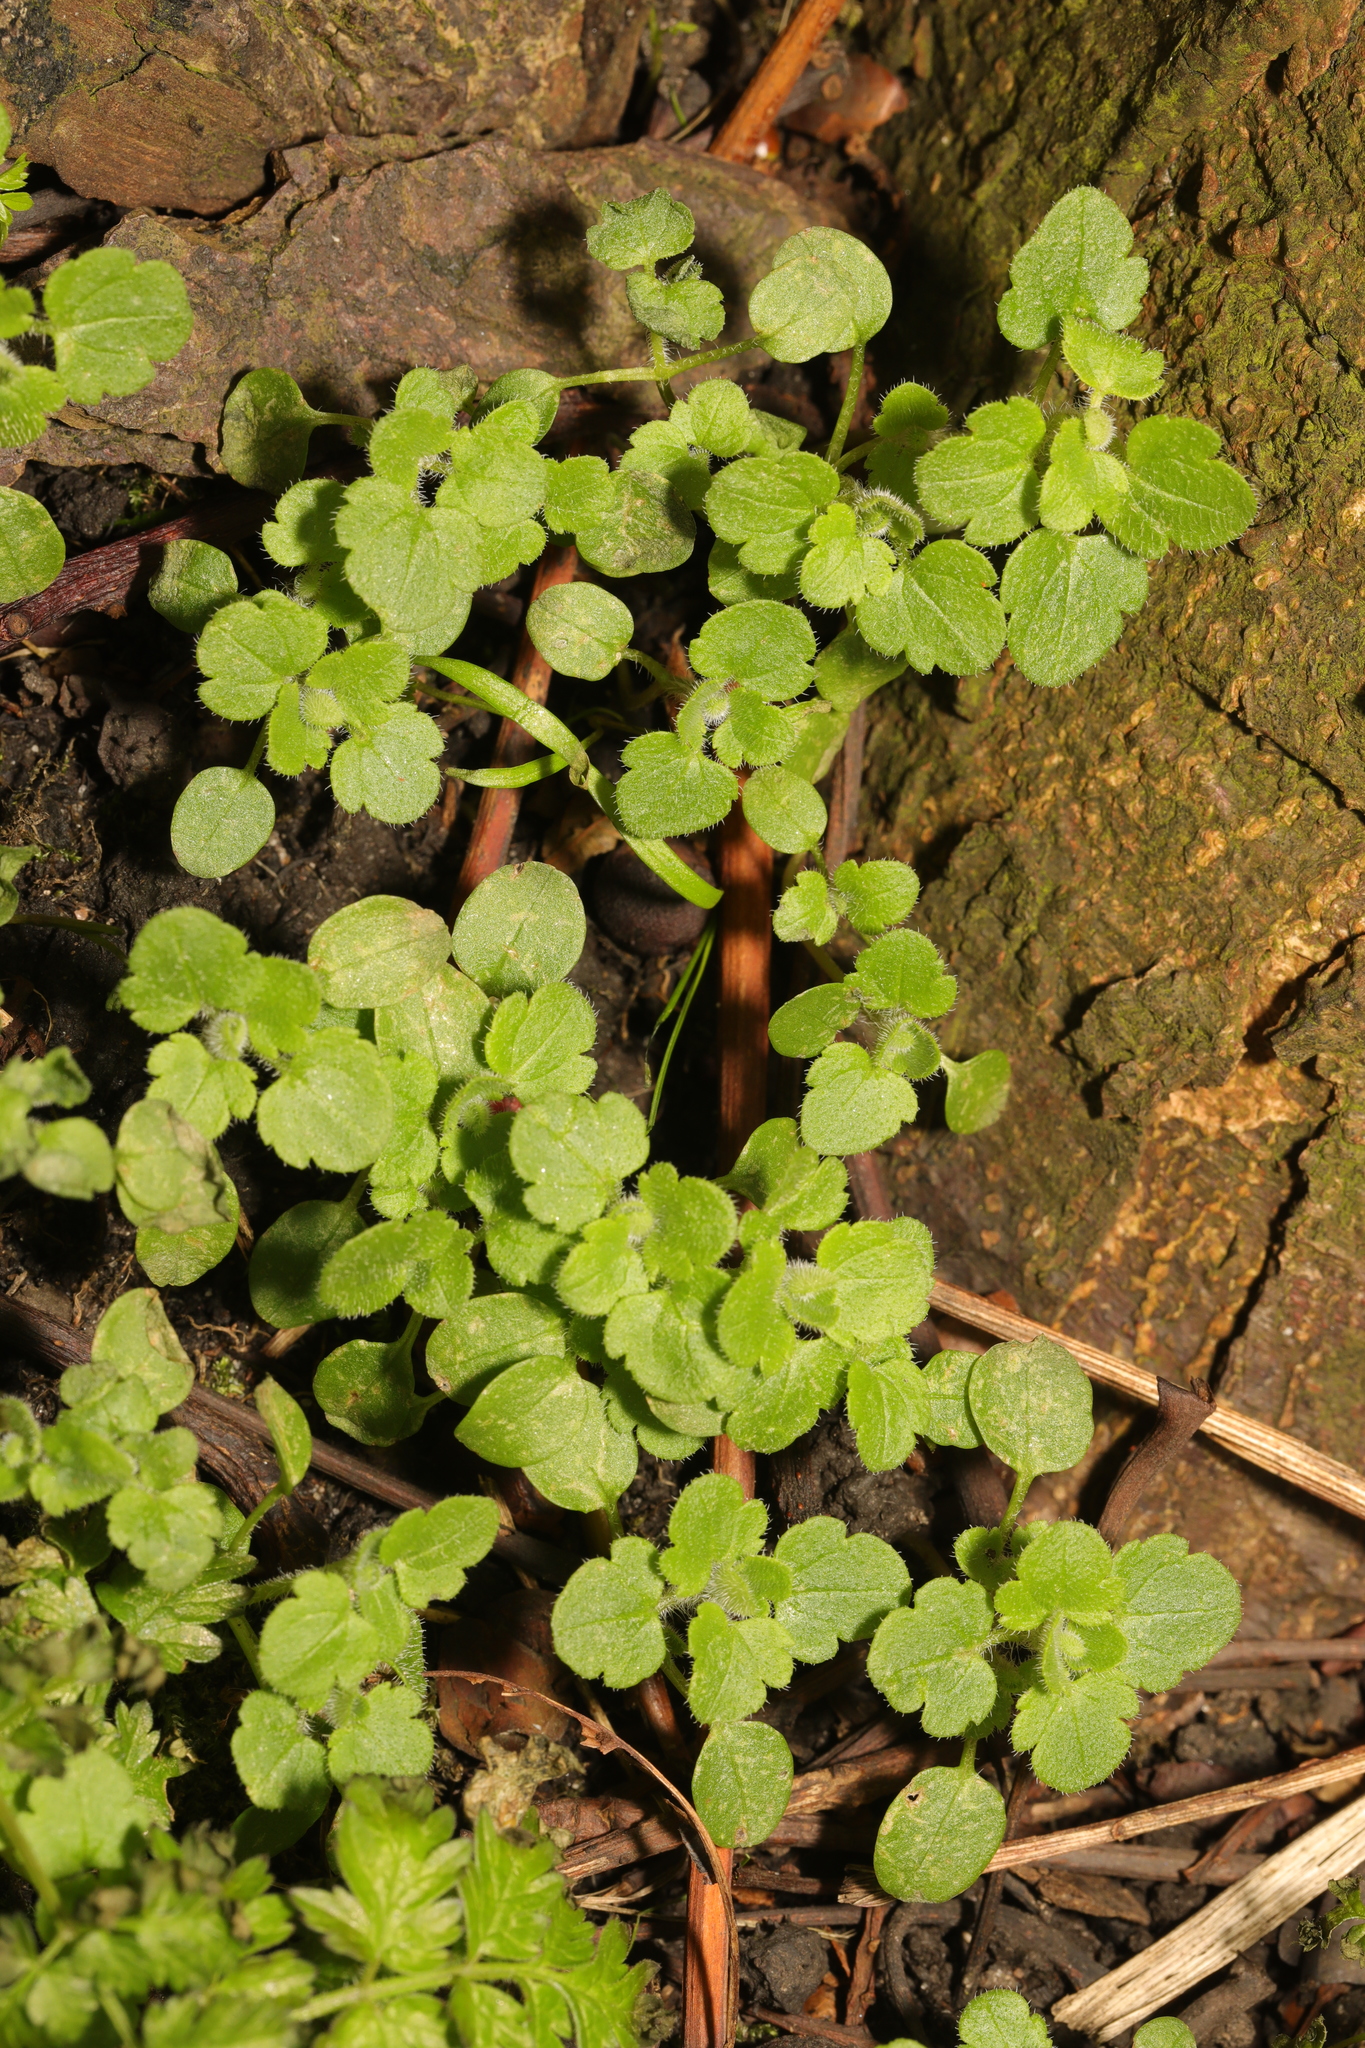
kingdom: Plantae
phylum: Tracheophyta
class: Magnoliopsida
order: Lamiales
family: Plantaginaceae
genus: Veronica
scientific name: Veronica
